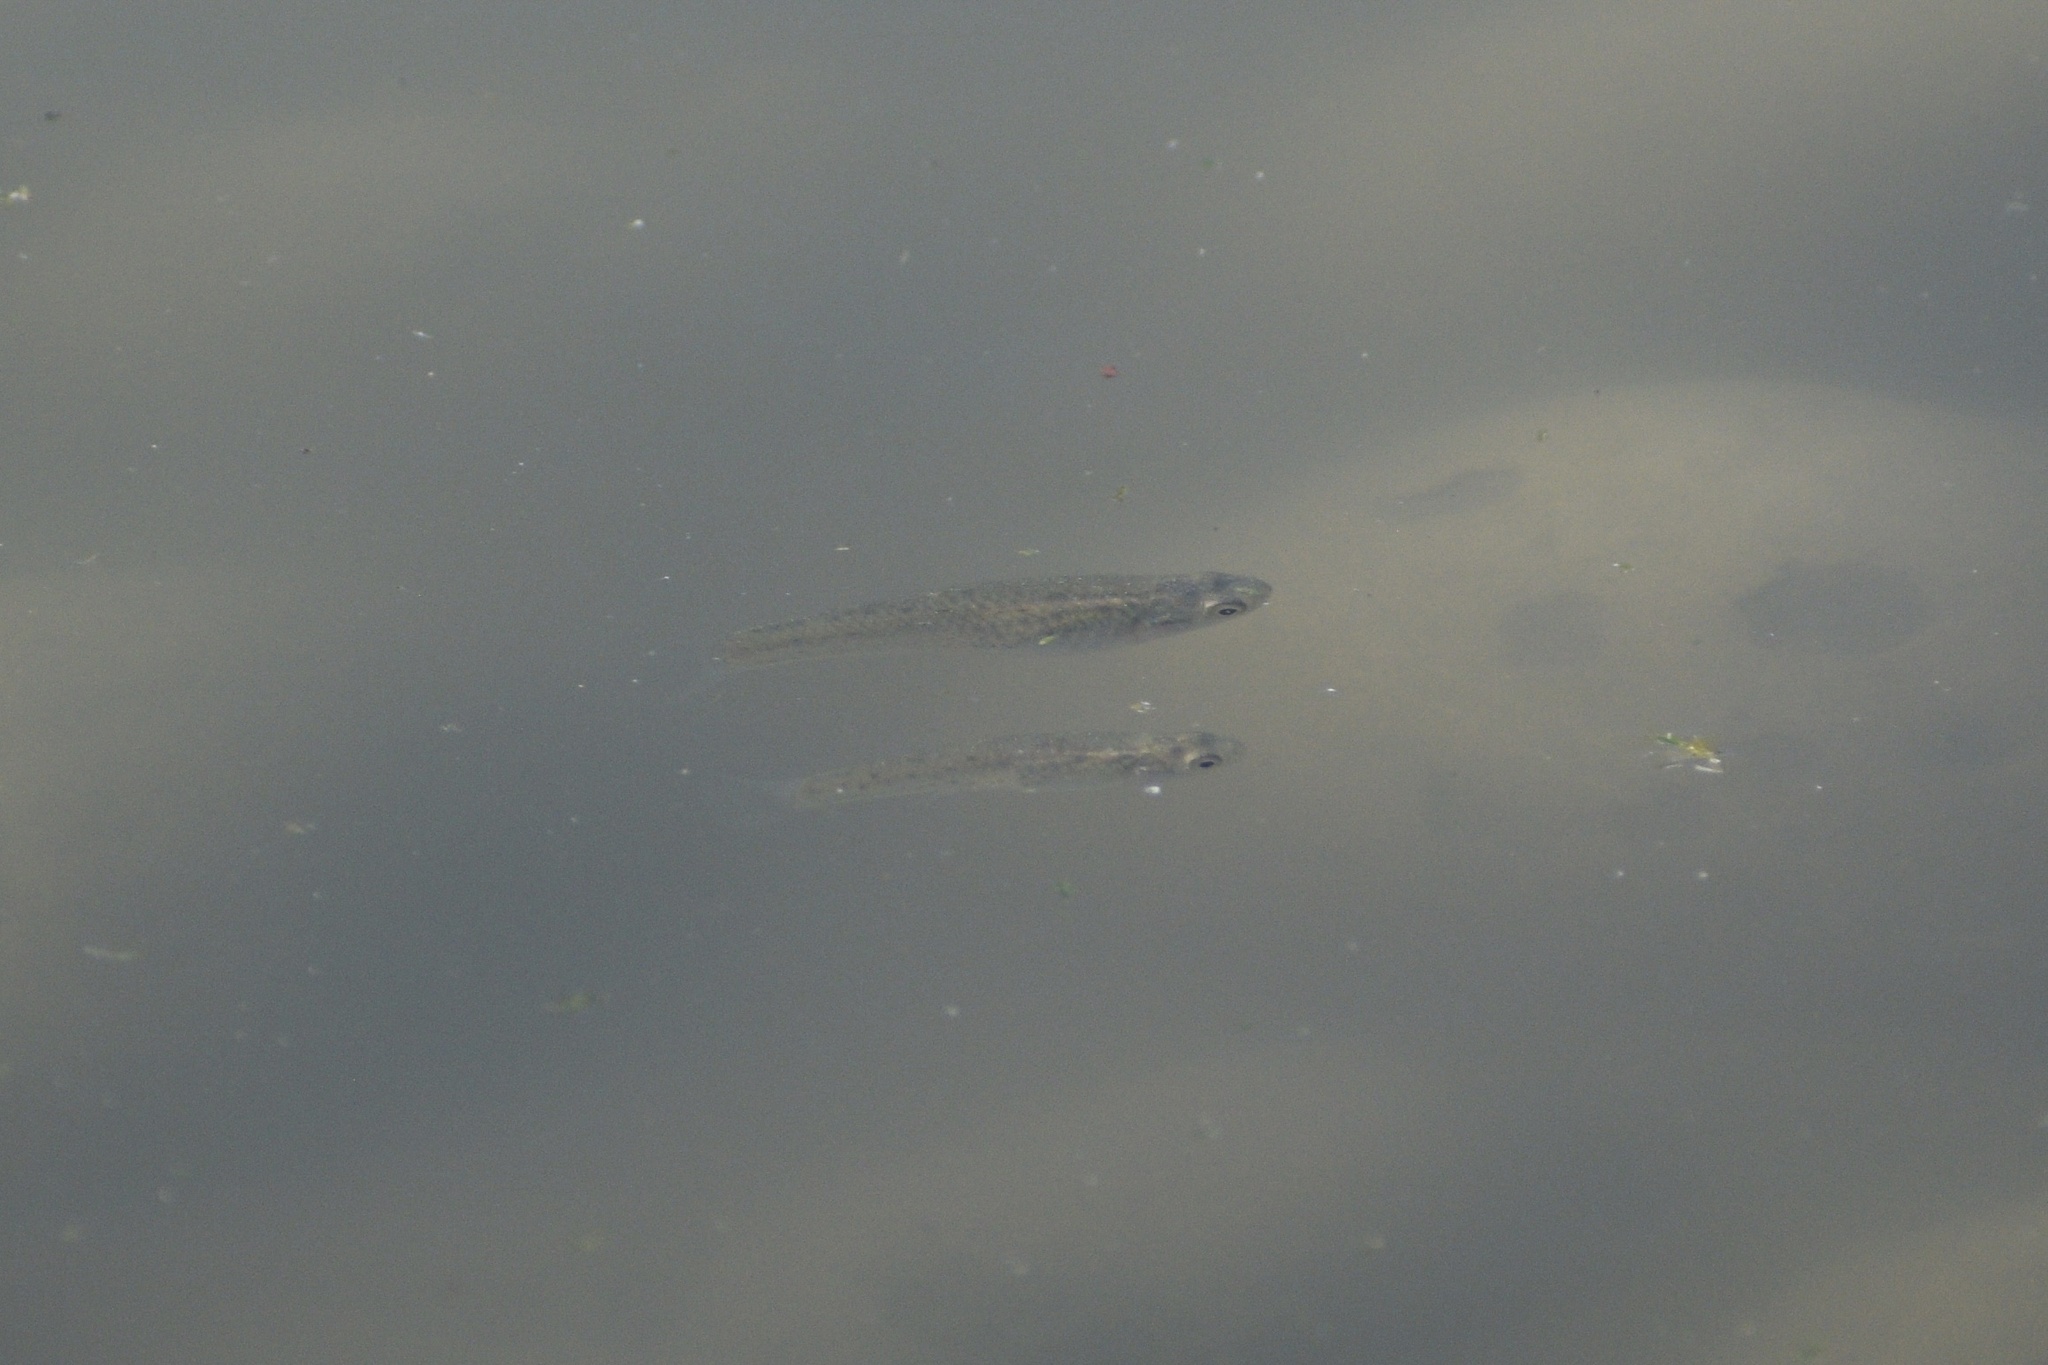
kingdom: Animalia
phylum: Chordata
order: Cyprinodontiformes
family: Anablepidae
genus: Jenynsia
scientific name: Jenynsia lineata
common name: Onesided livebearer
